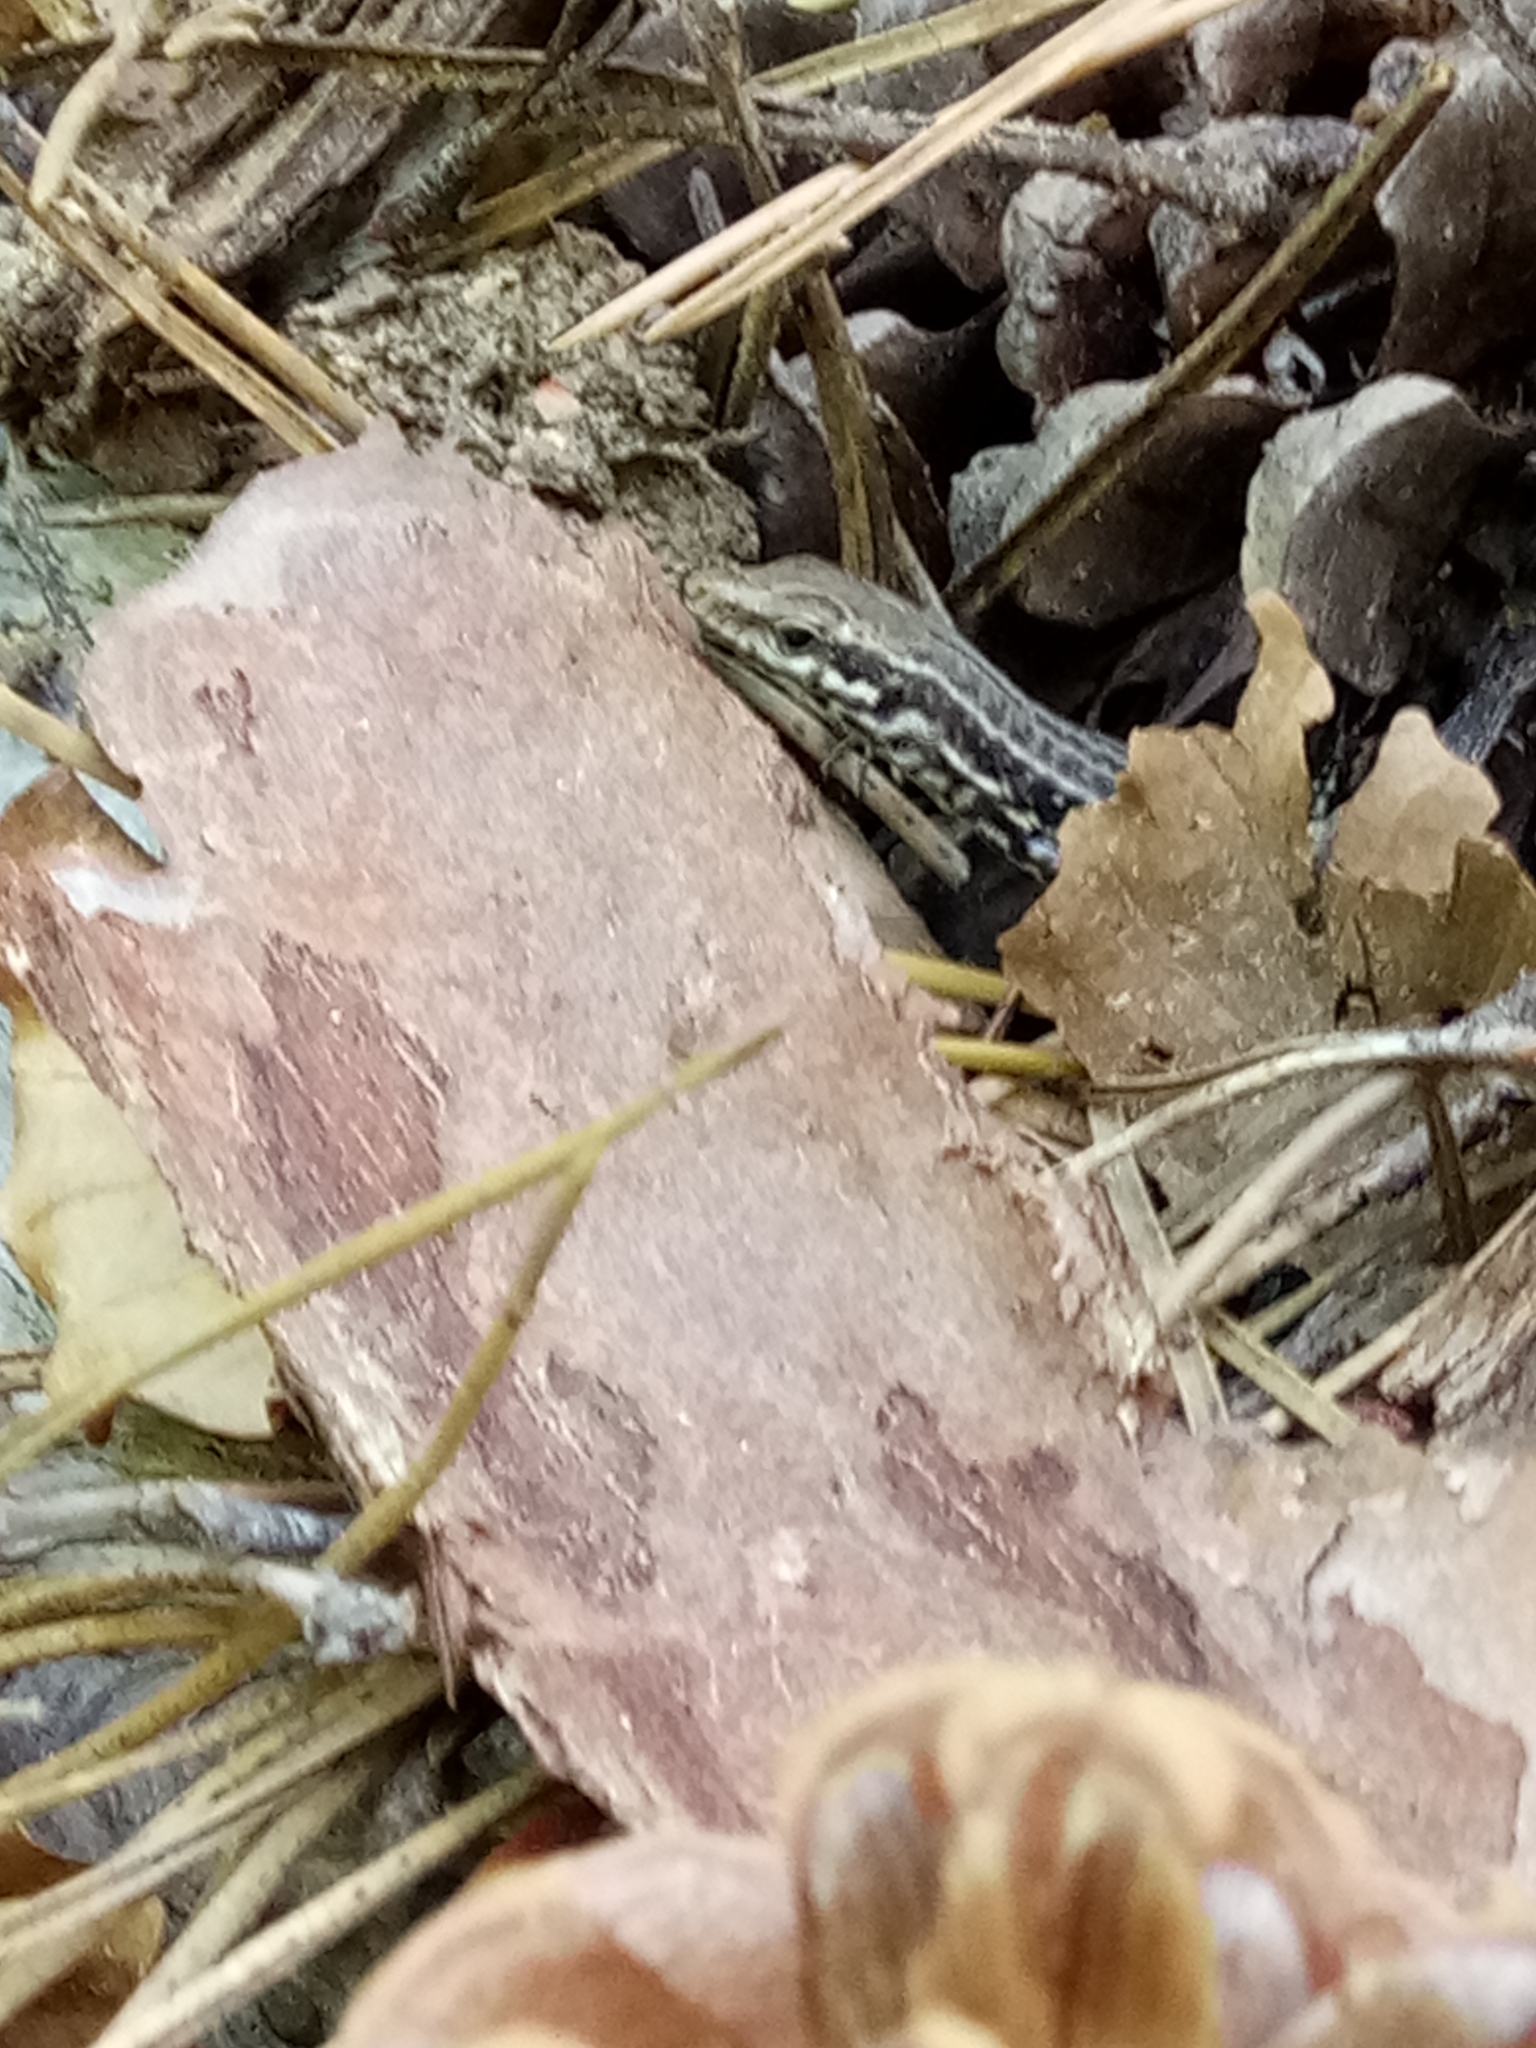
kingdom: Animalia
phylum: Chordata
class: Squamata
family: Lacertidae
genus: Podarcis
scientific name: Podarcis tiliguerta
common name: Tyrrhenian wall lizard
